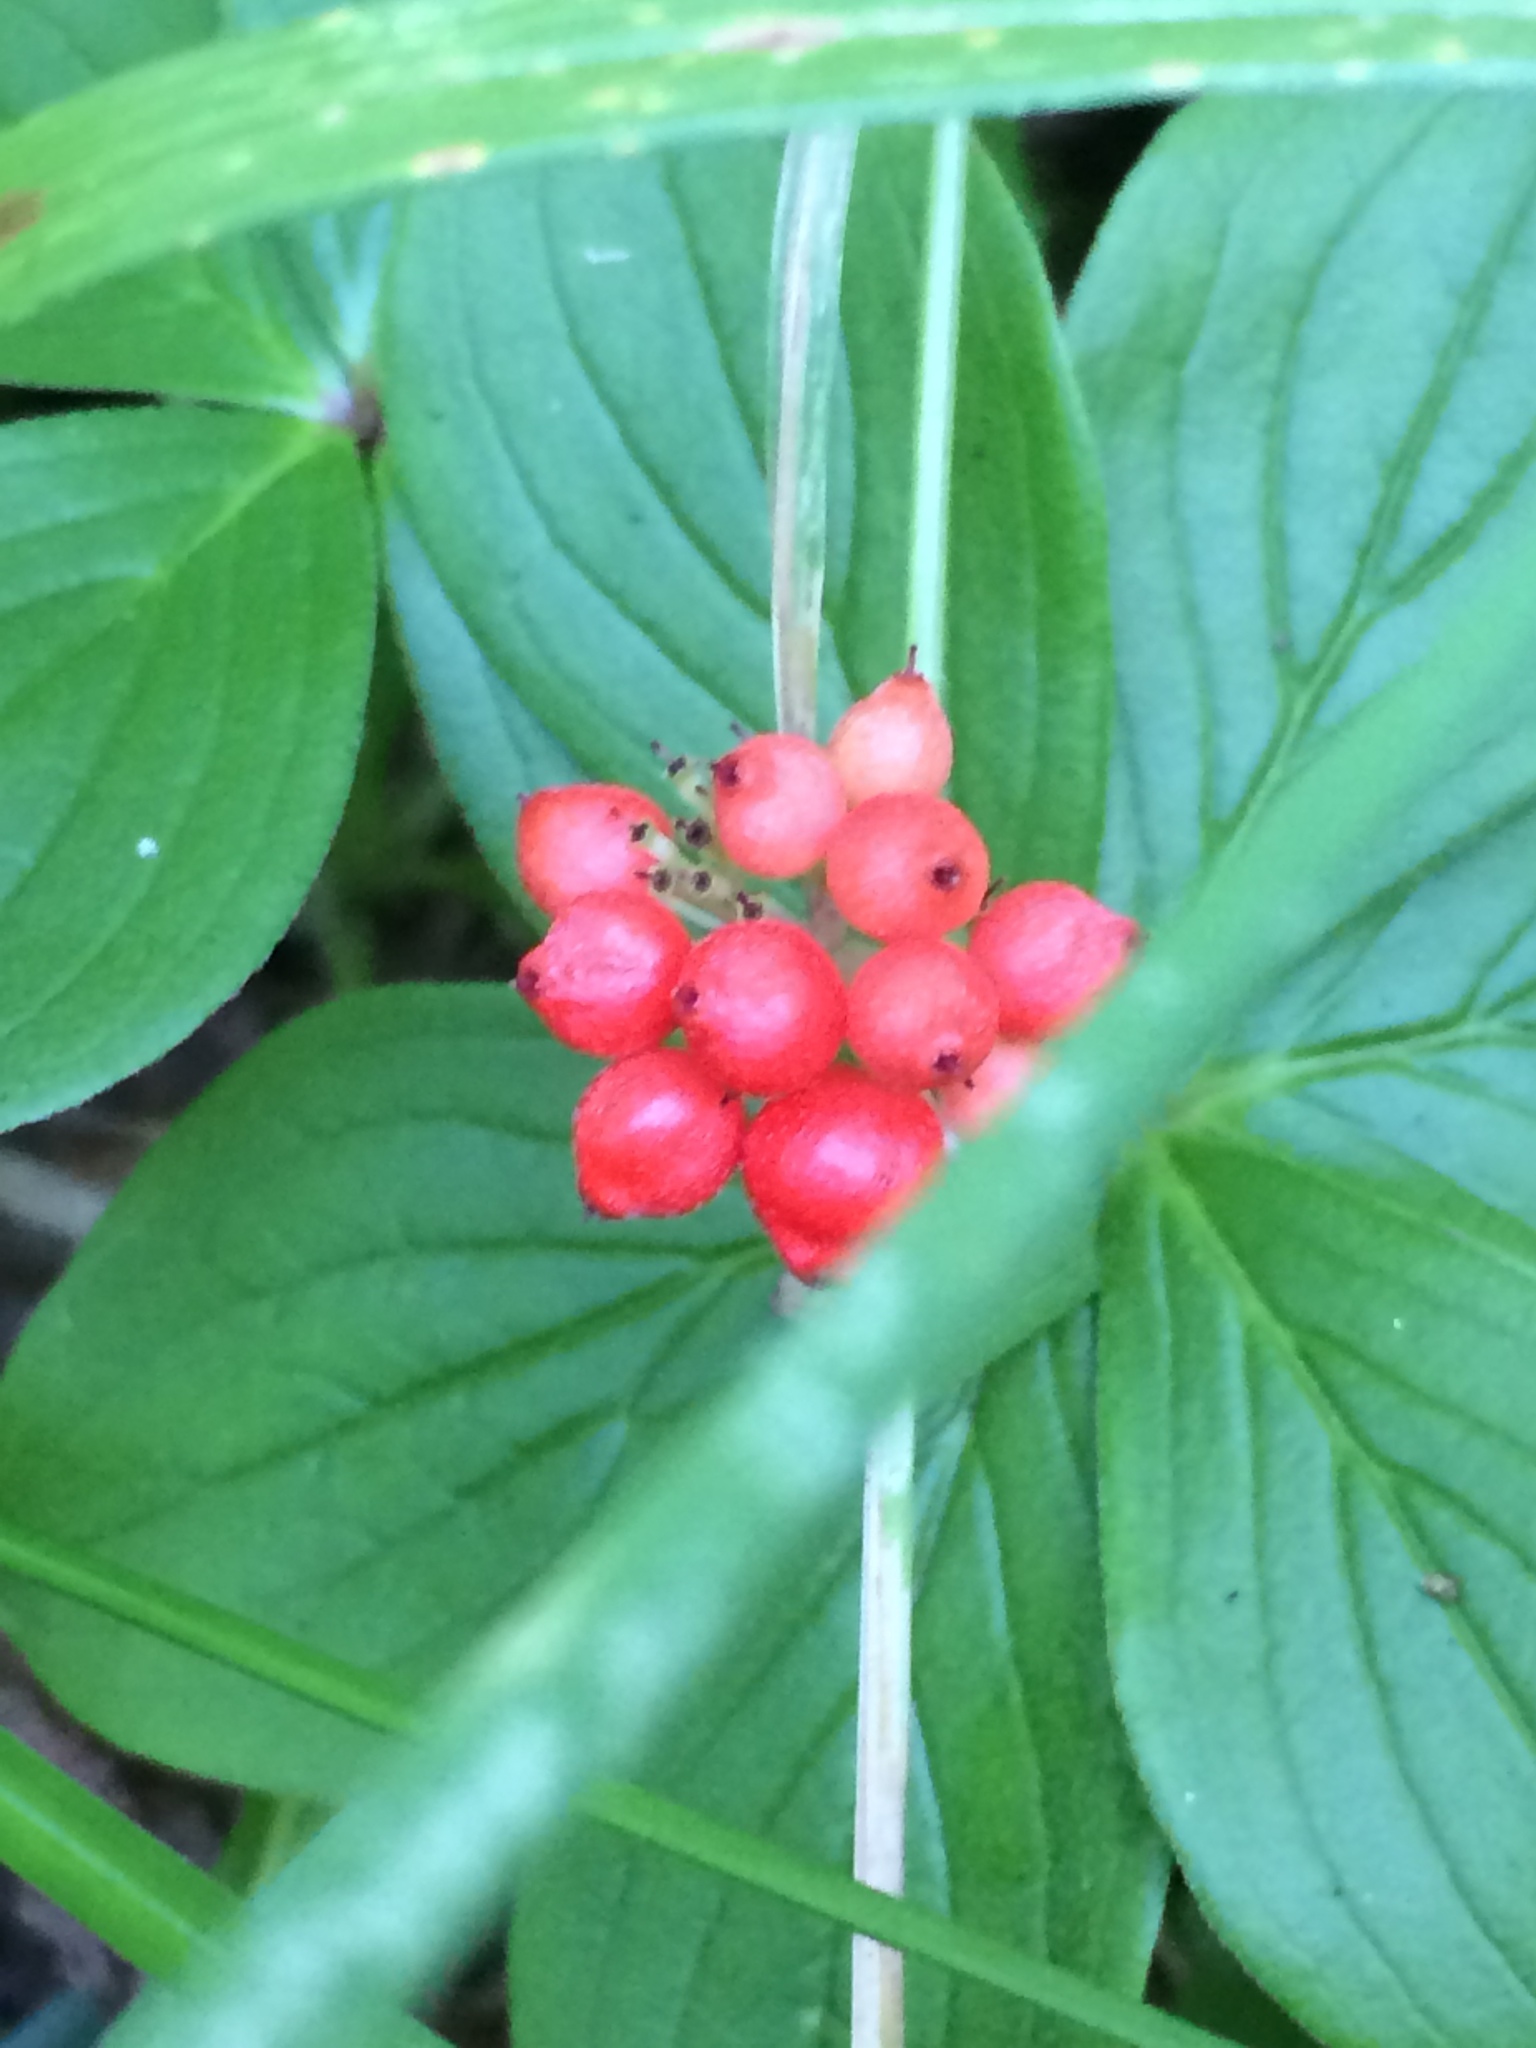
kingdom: Plantae
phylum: Tracheophyta
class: Magnoliopsida
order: Cornales
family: Cornaceae
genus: Cornus
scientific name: Cornus canadensis
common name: Creeping dogwood
